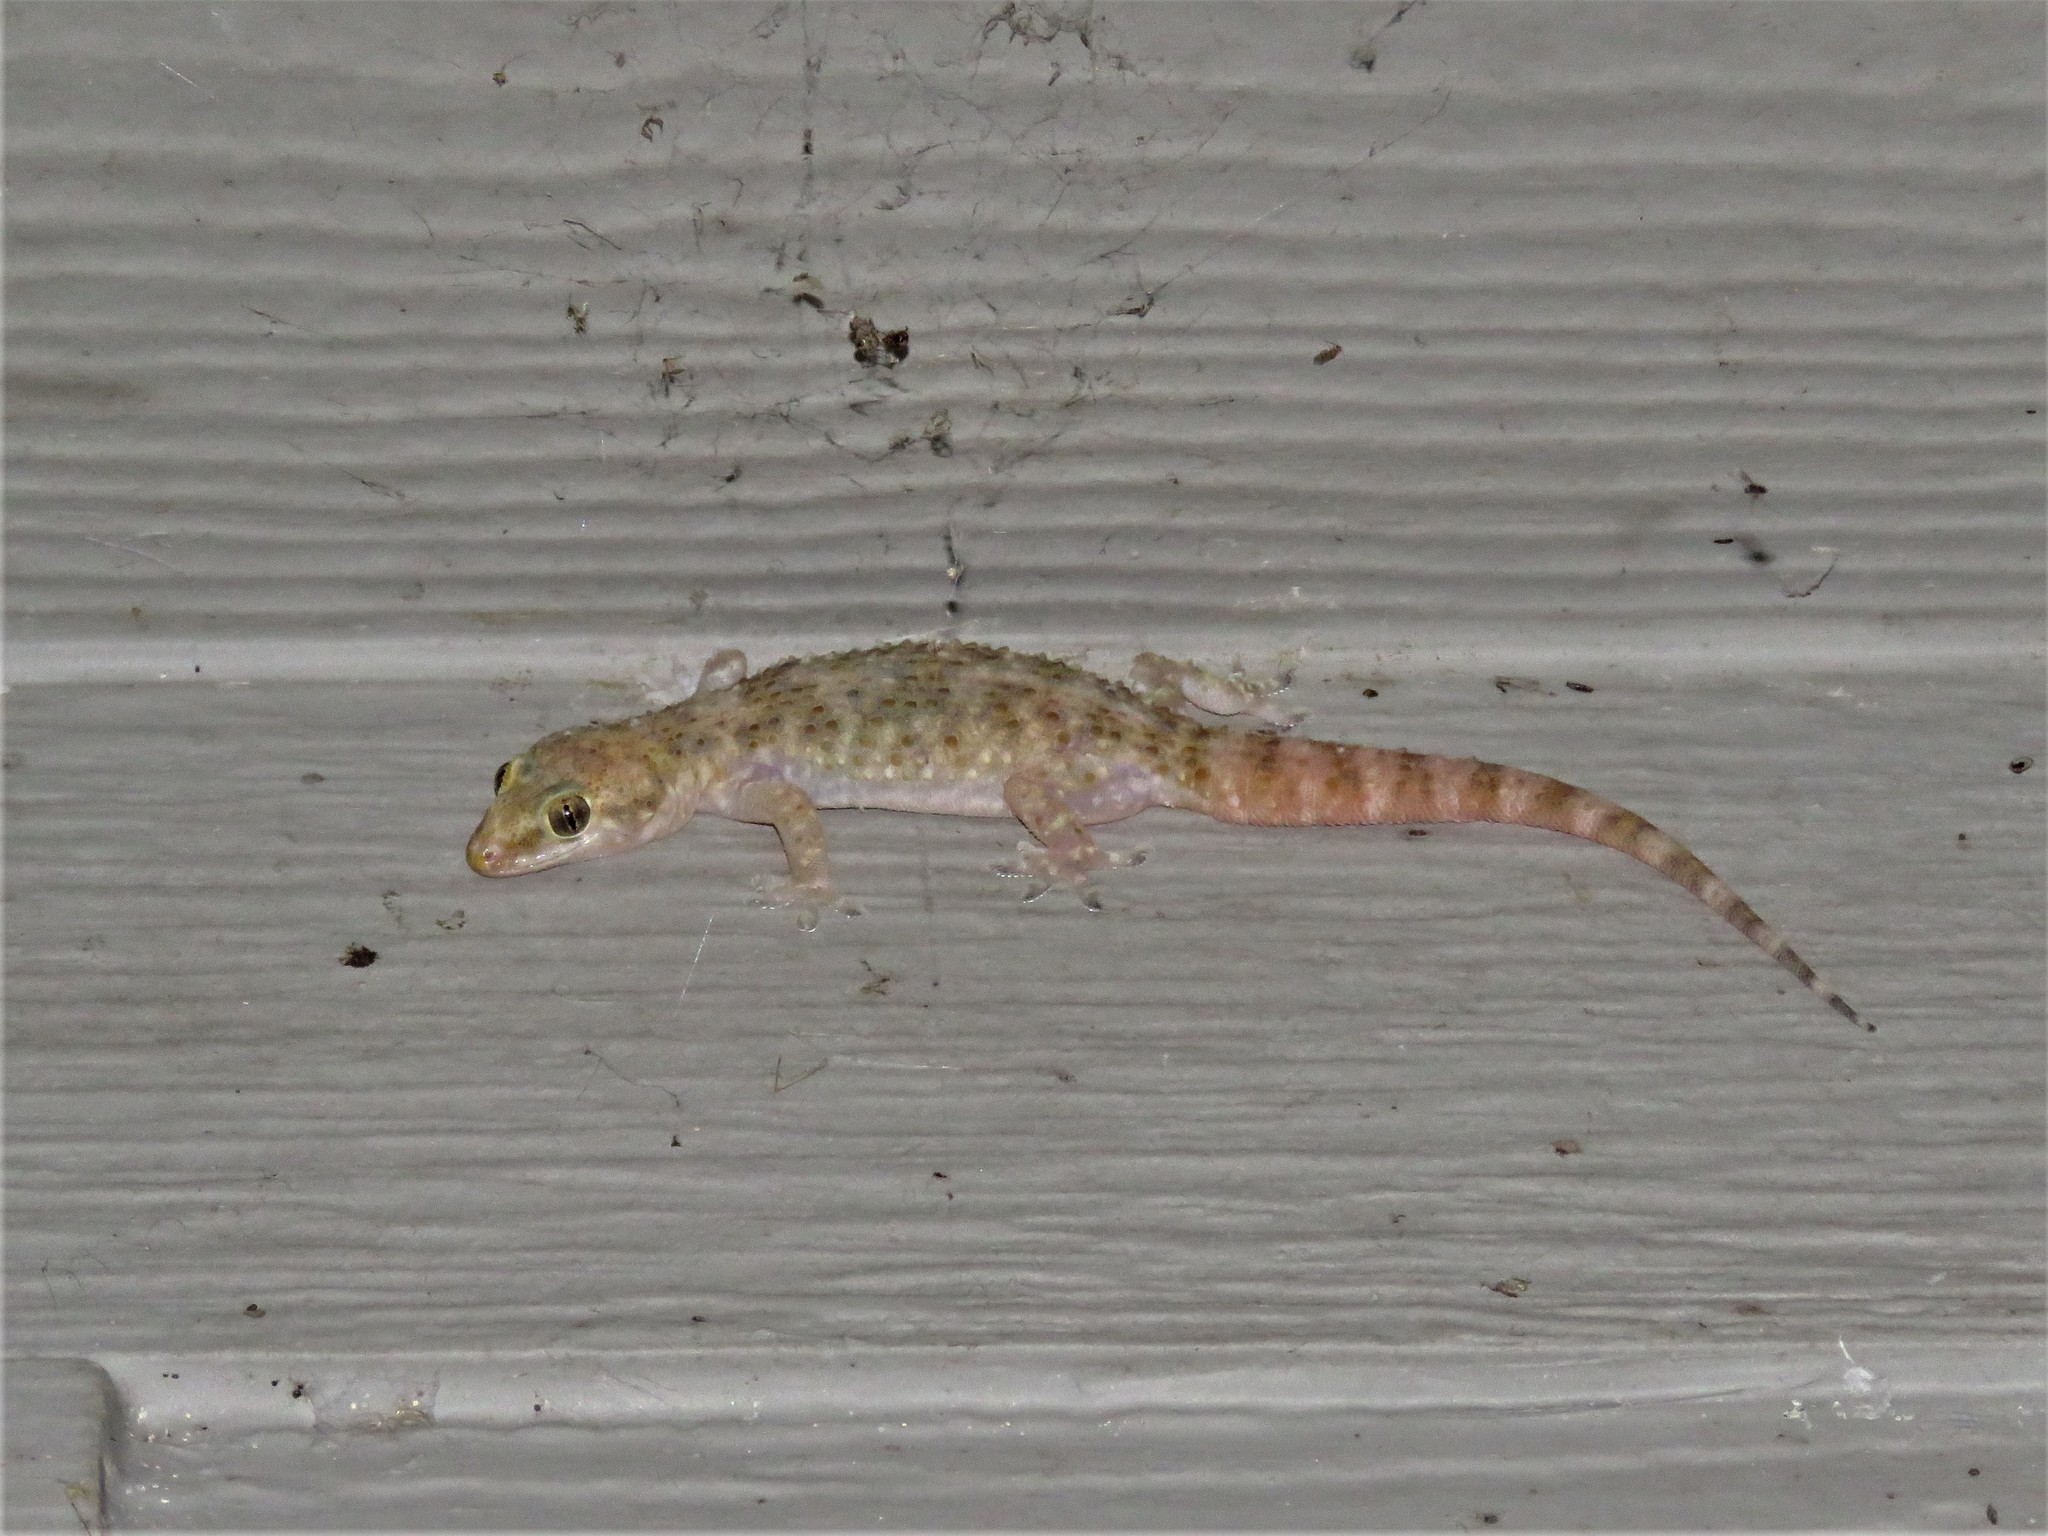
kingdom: Animalia
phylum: Chordata
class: Squamata
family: Gekkonidae
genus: Hemidactylus
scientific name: Hemidactylus turcicus
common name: Turkish gecko
